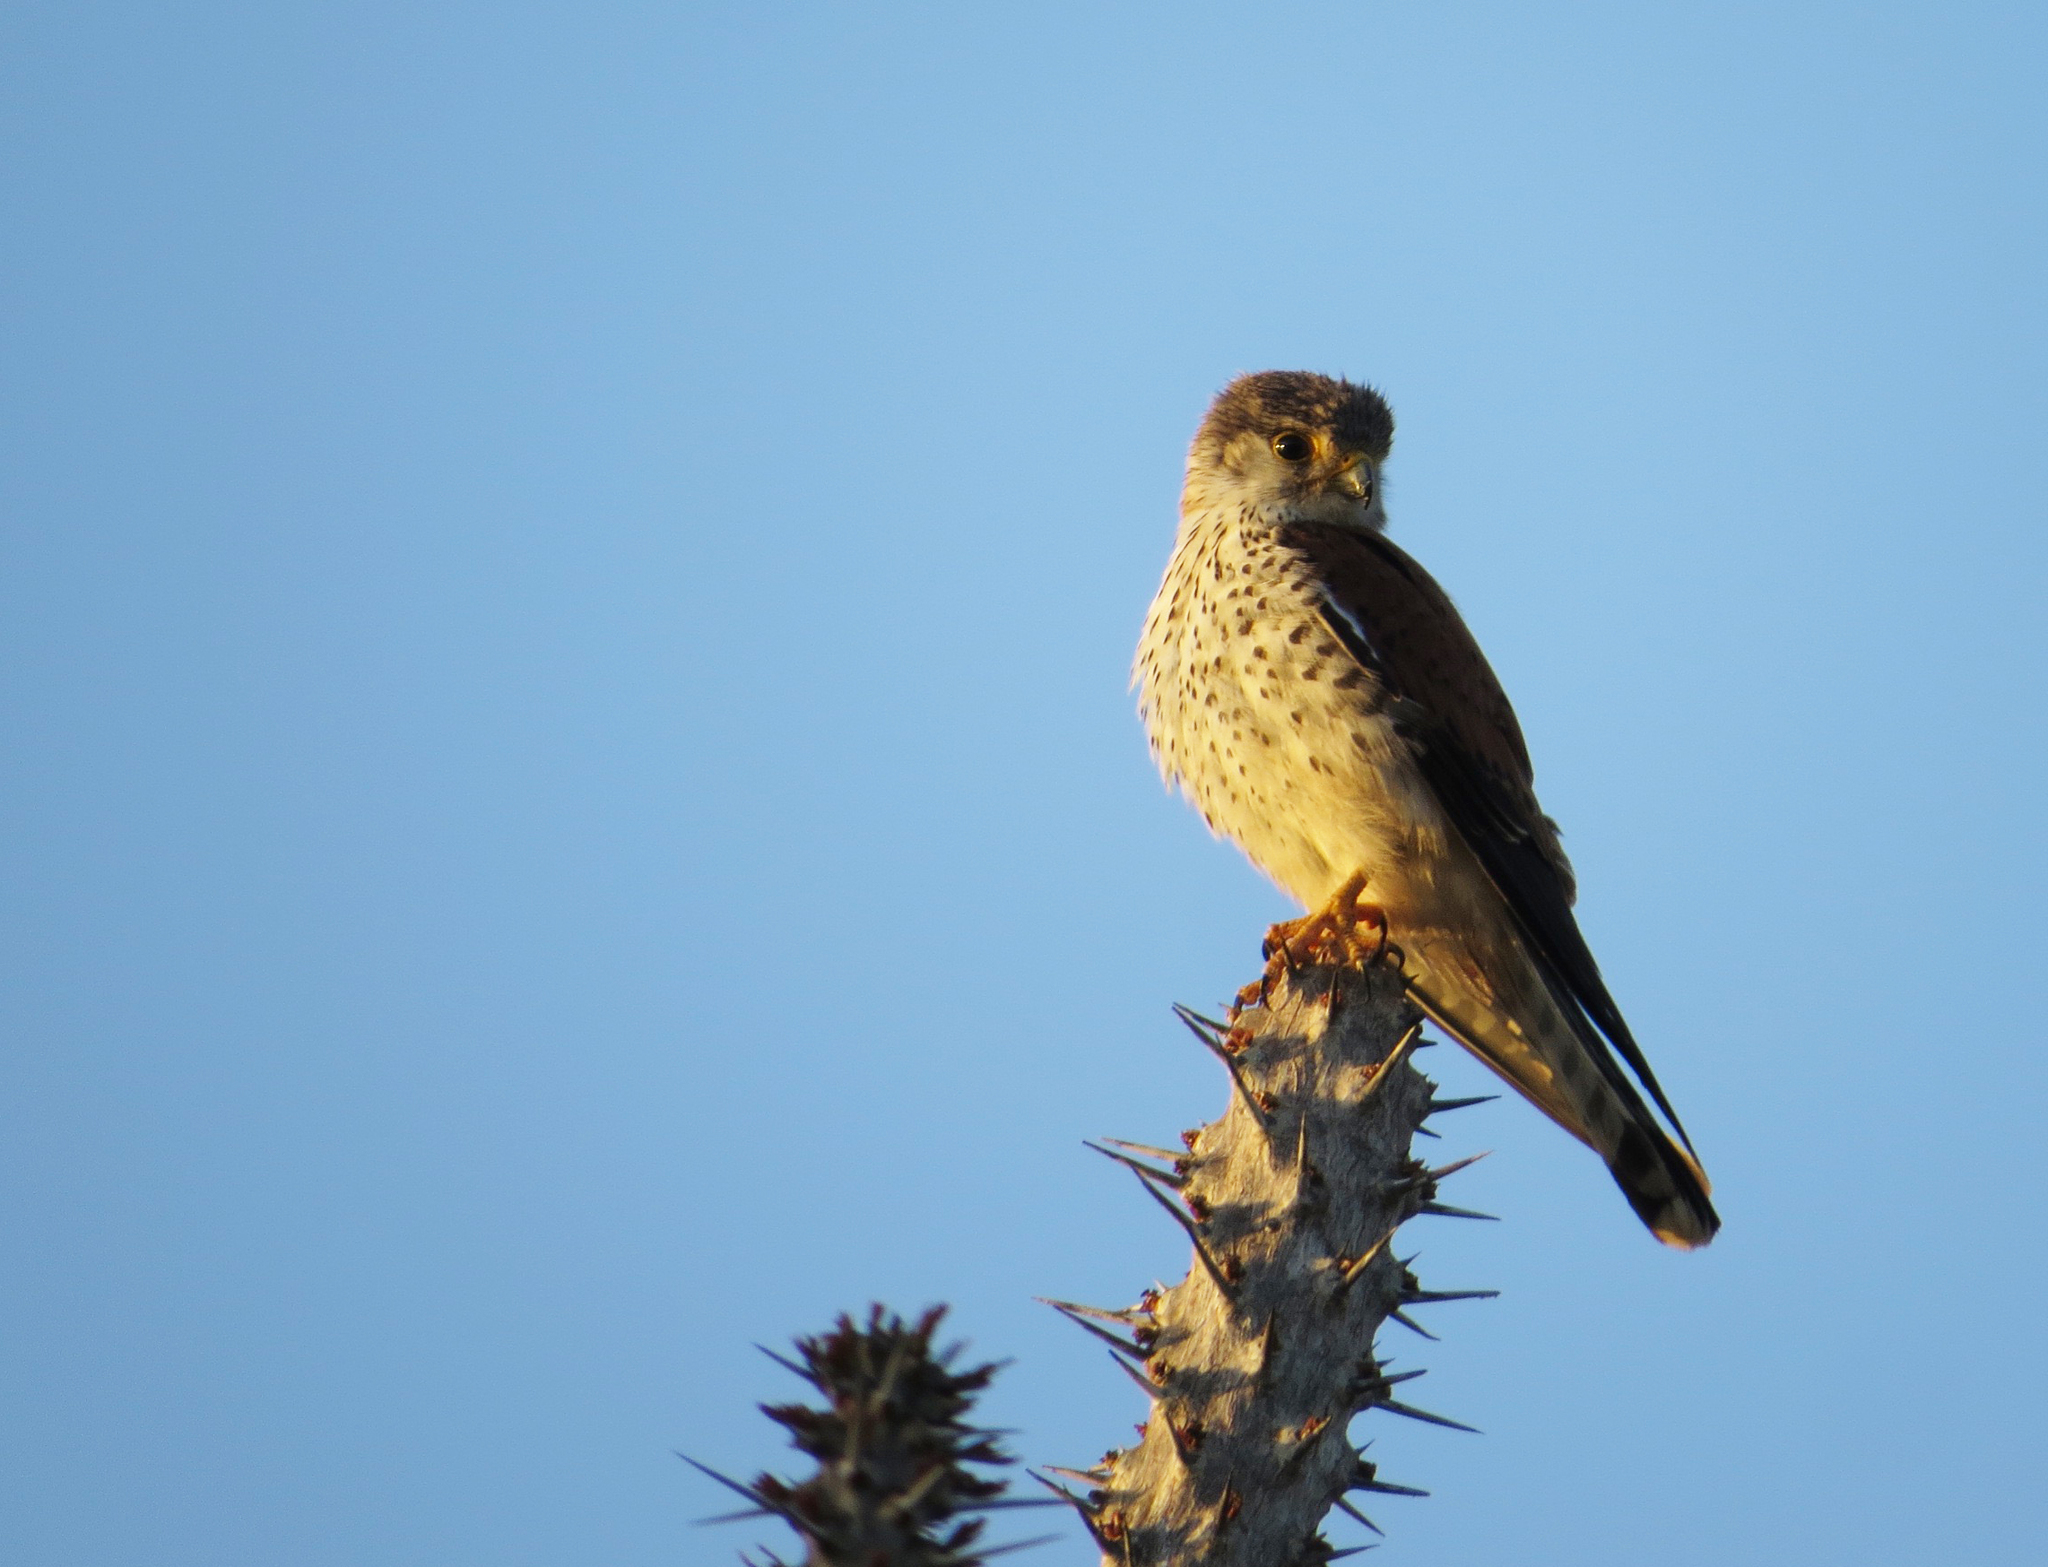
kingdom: Animalia
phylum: Chordata
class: Aves
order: Falconiformes
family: Falconidae
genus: Falco
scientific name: Falco newtoni
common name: Malagasy kestrel
